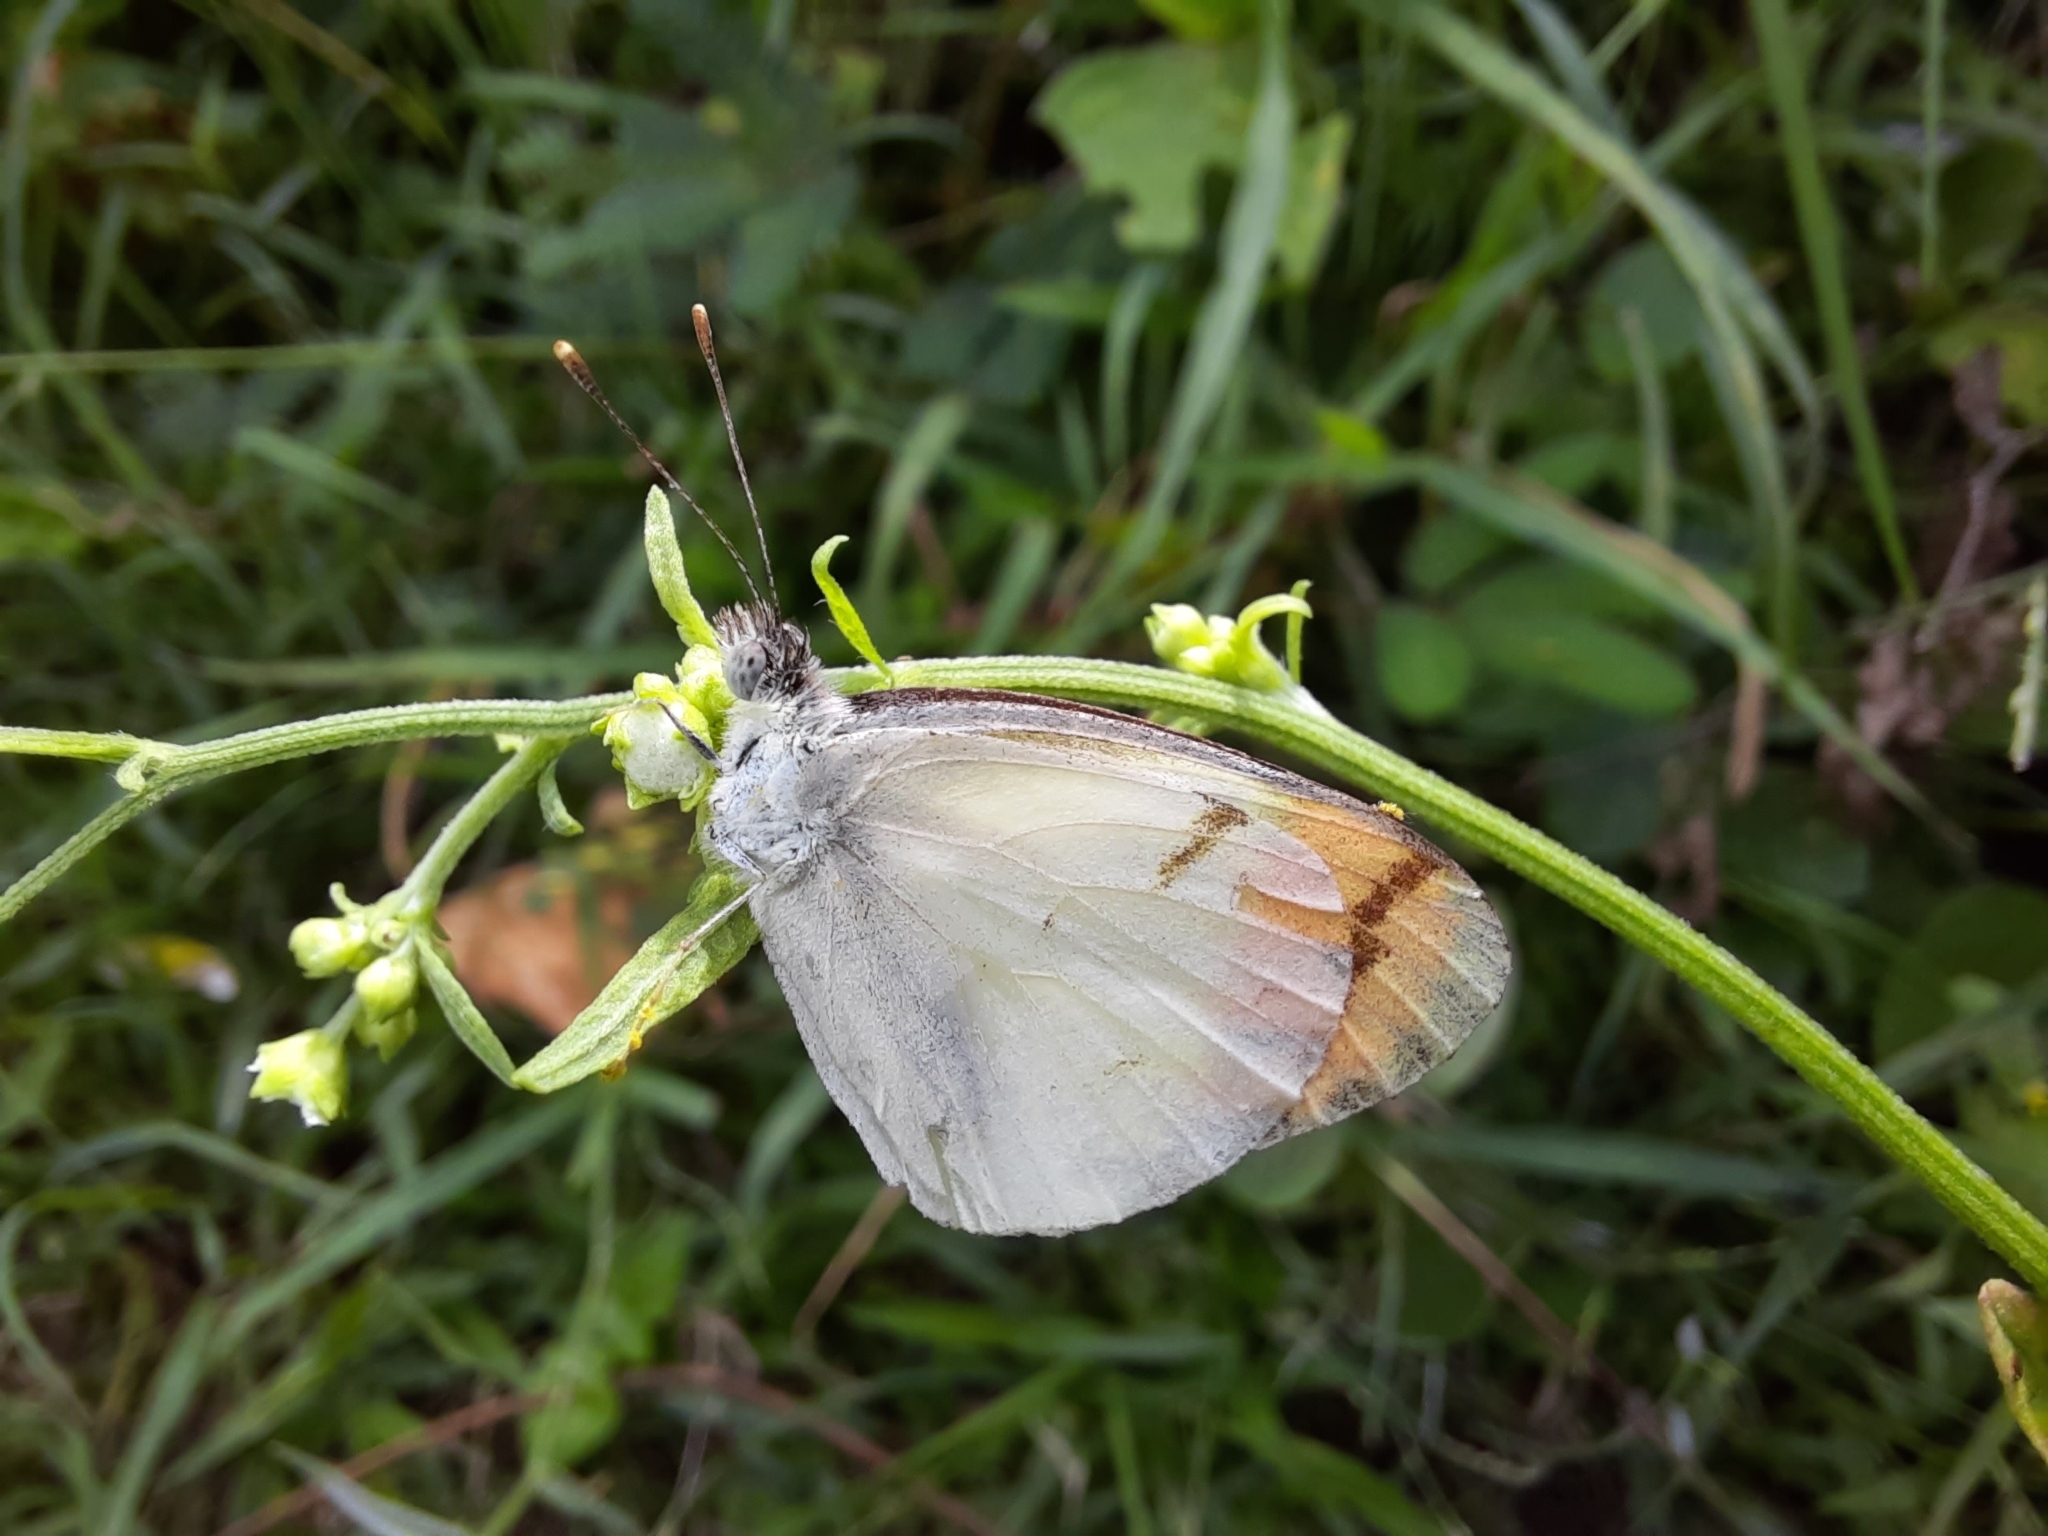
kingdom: Animalia
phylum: Arthropoda
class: Insecta
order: Lepidoptera
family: Pieridae
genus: Colotis
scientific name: Colotis aurora
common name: Plain orange-tip
